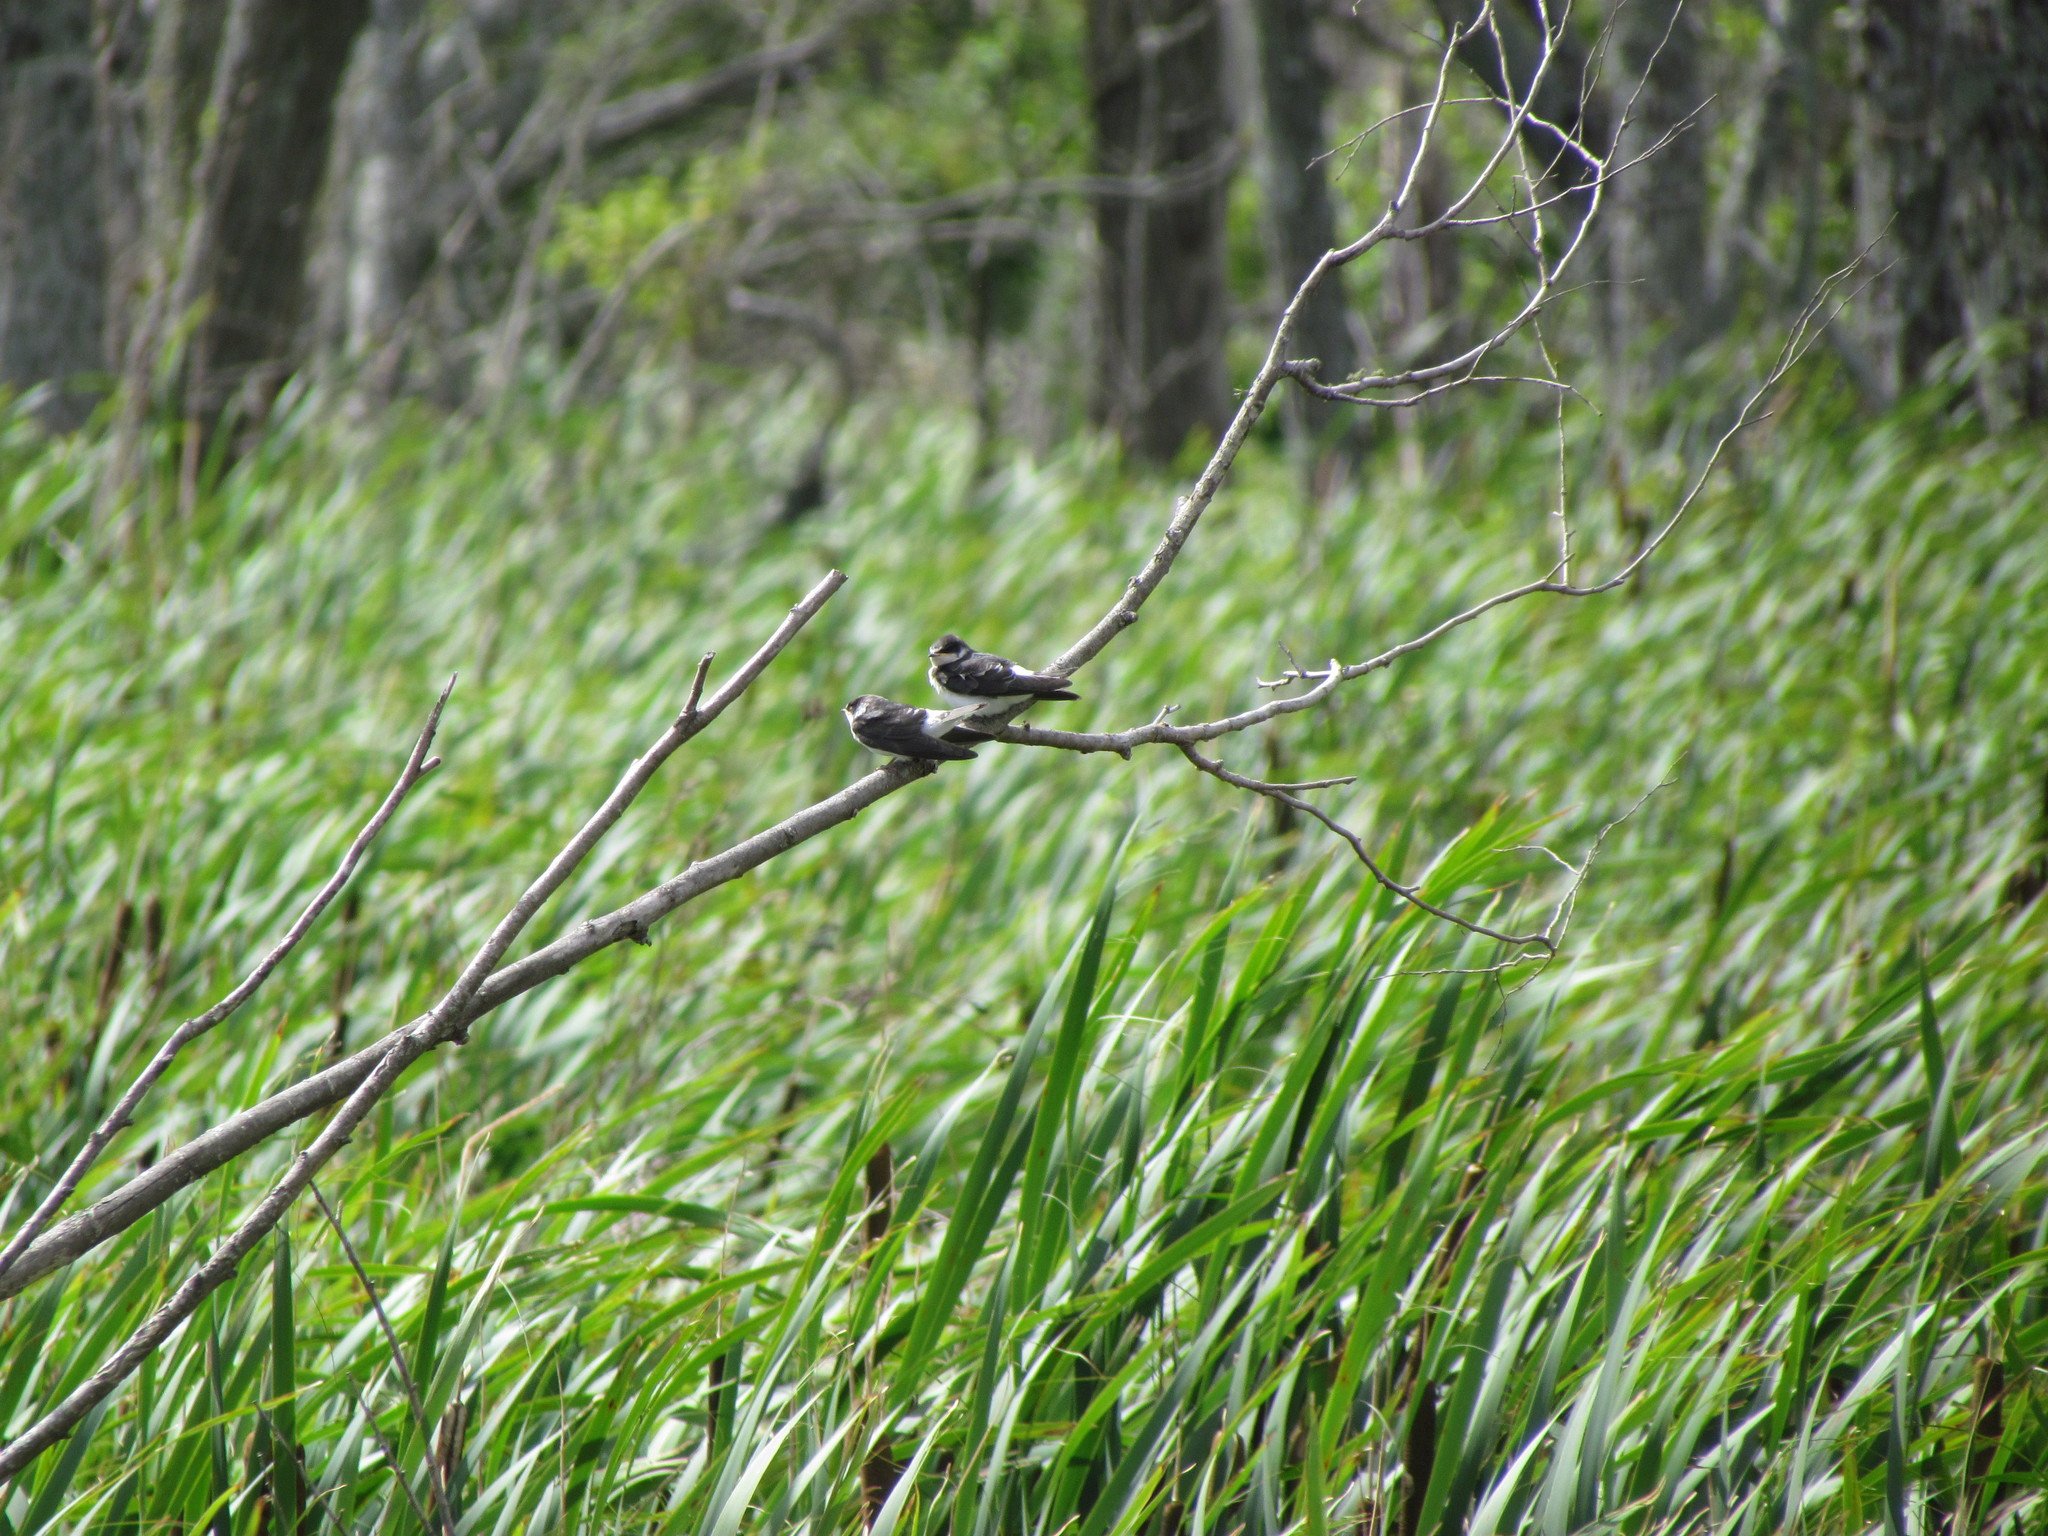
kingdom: Animalia
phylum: Chordata
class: Aves
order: Passeriformes
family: Hirundinidae
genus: Tachycineta
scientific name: Tachycineta leucorrhoa
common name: White-rumped swallow
